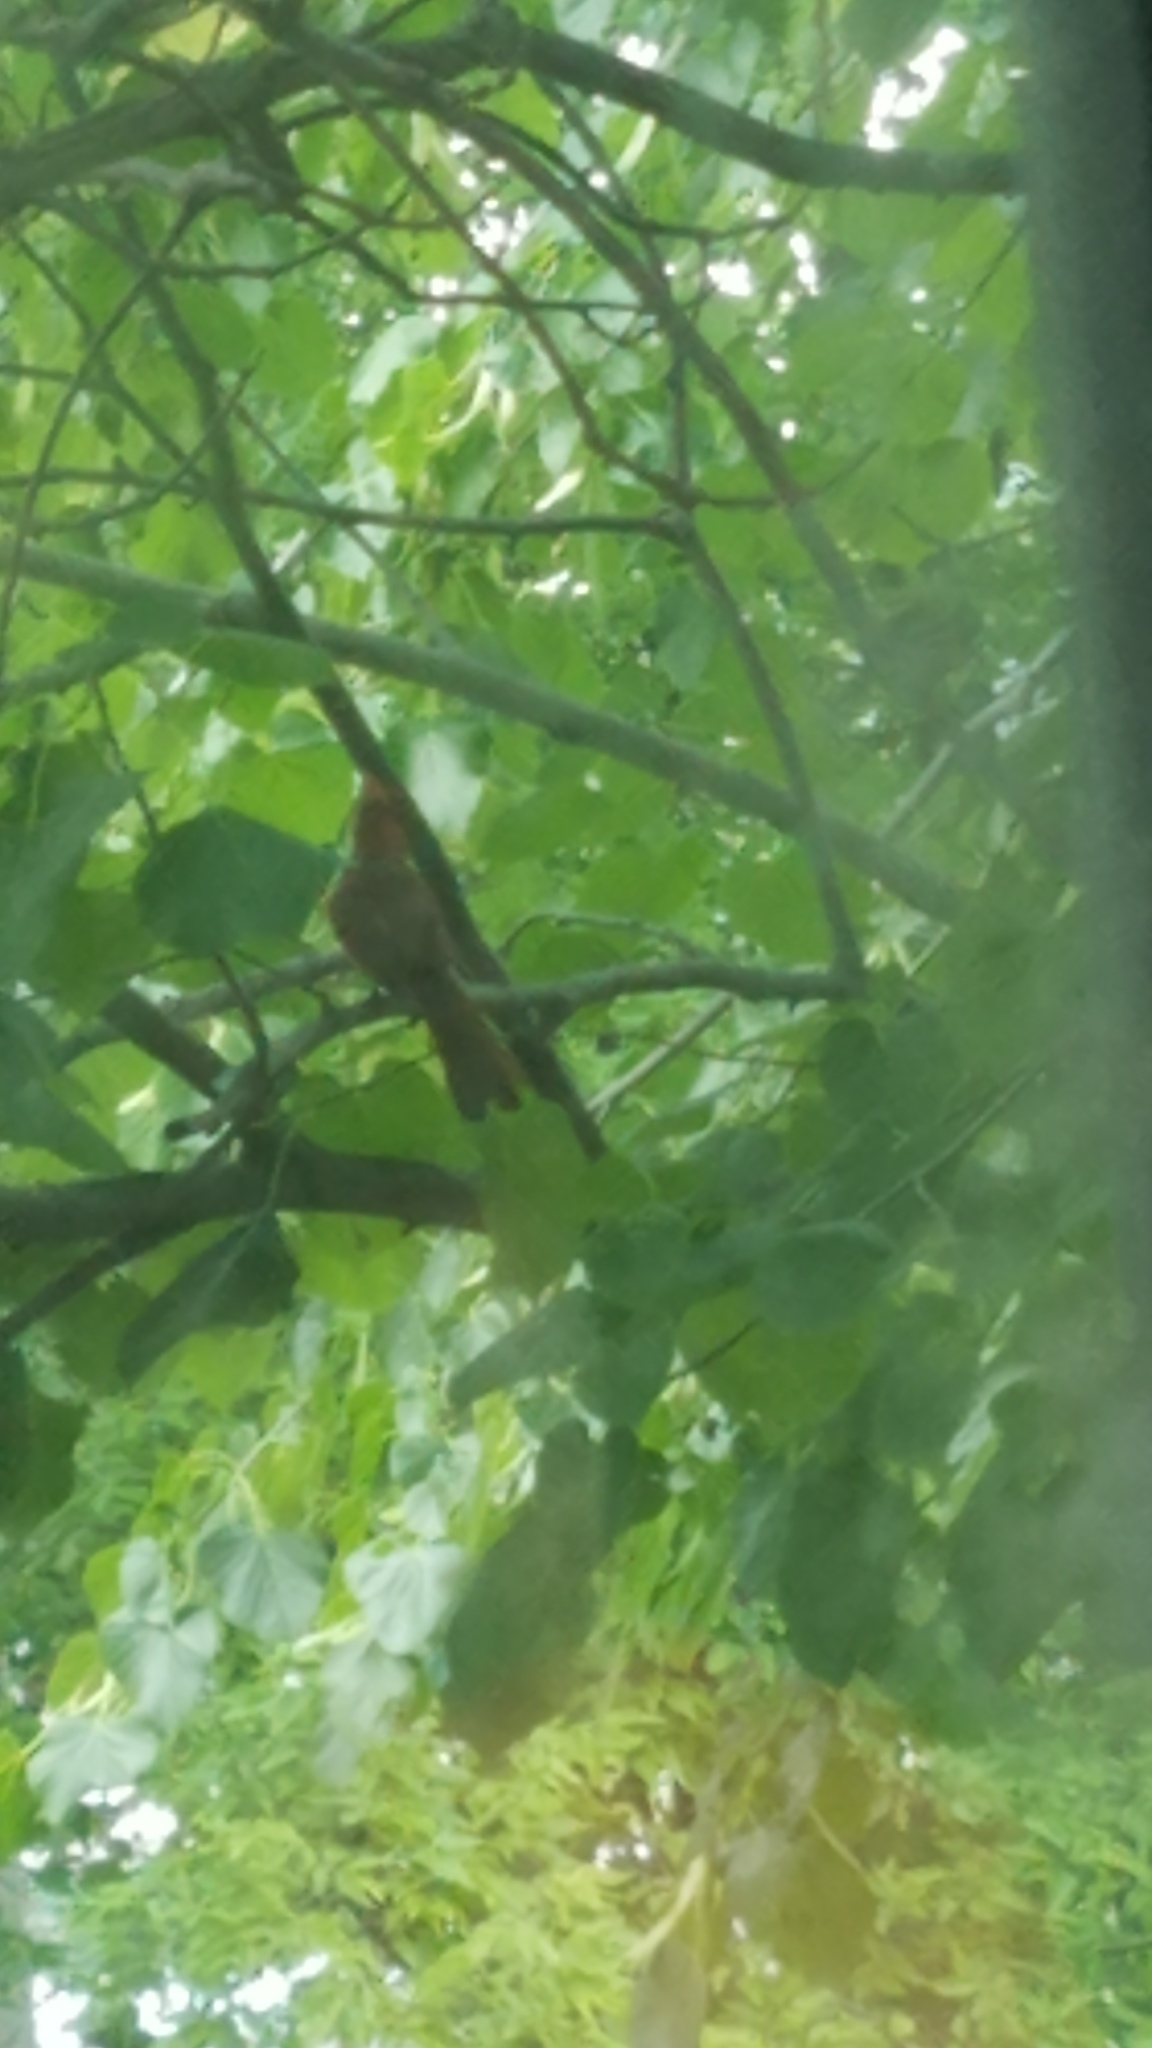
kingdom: Animalia
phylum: Chordata
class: Aves
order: Passeriformes
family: Cardinalidae
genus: Cardinalis
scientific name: Cardinalis cardinalis
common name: Northern cardinal
